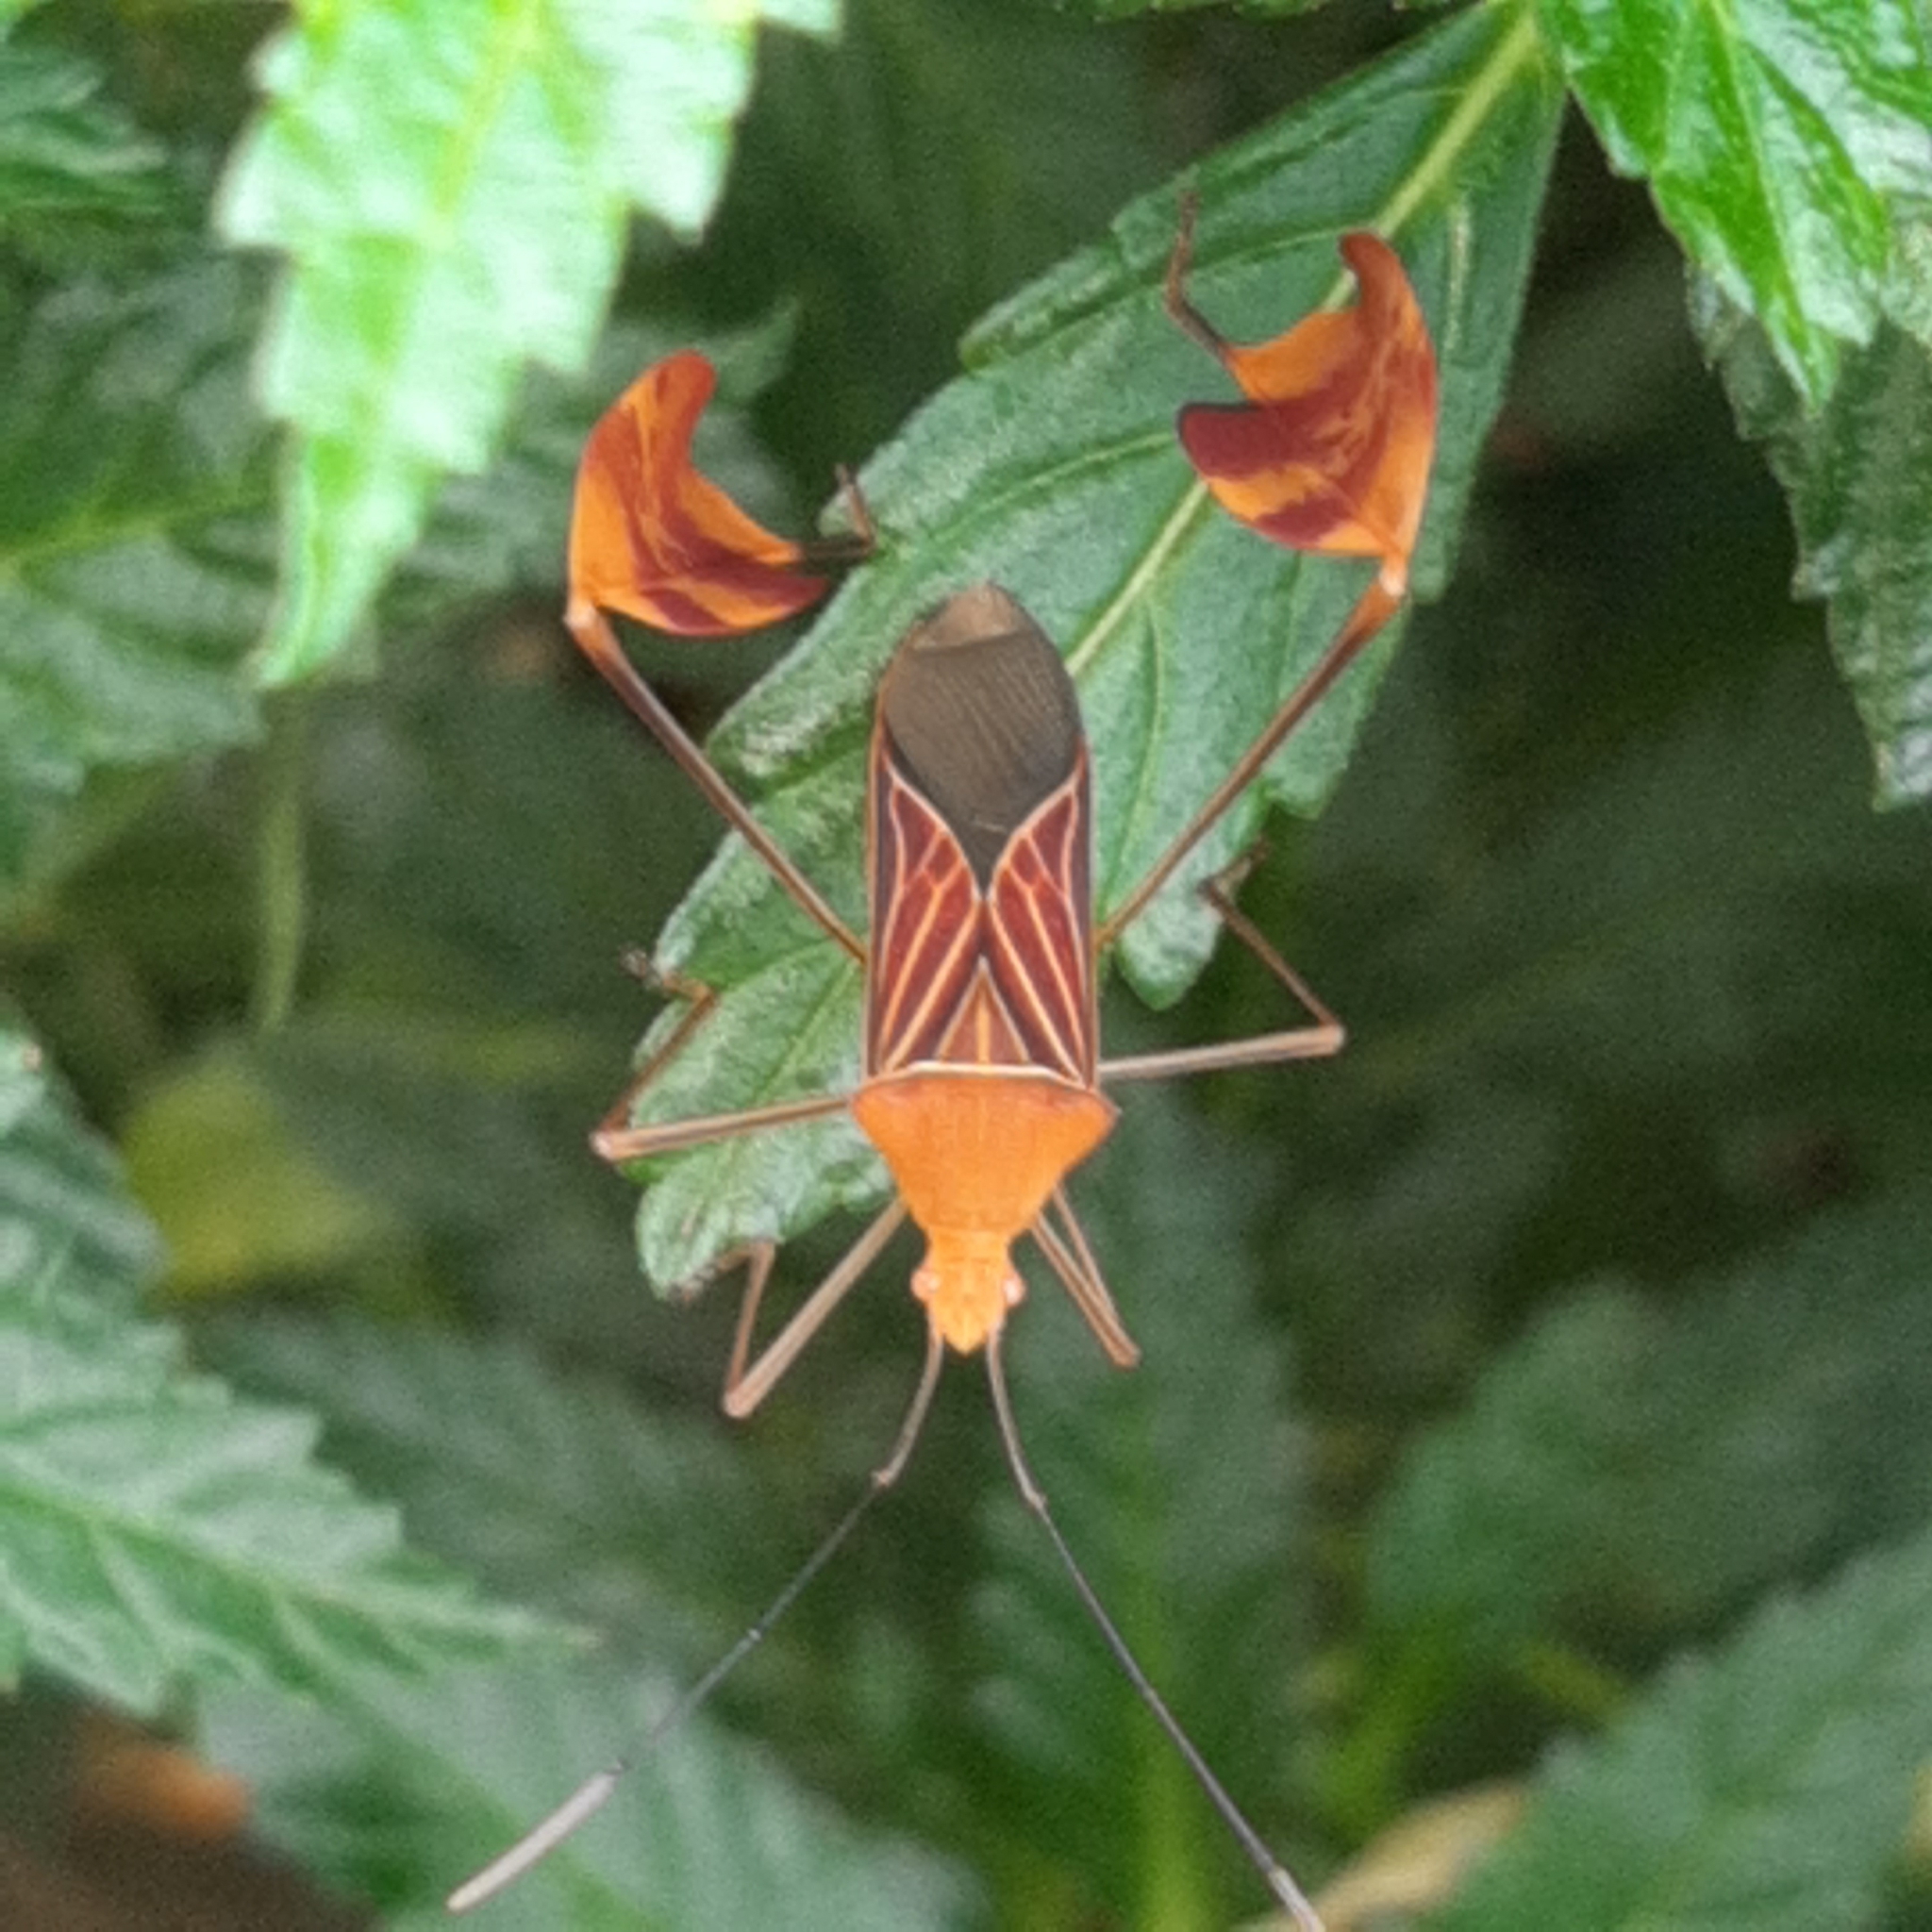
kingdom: Animalia
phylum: Arthropoda
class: Insecta
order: Hemiptera
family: Coreidae
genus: Anisoscelis
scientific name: Anisoscelis podalicus
